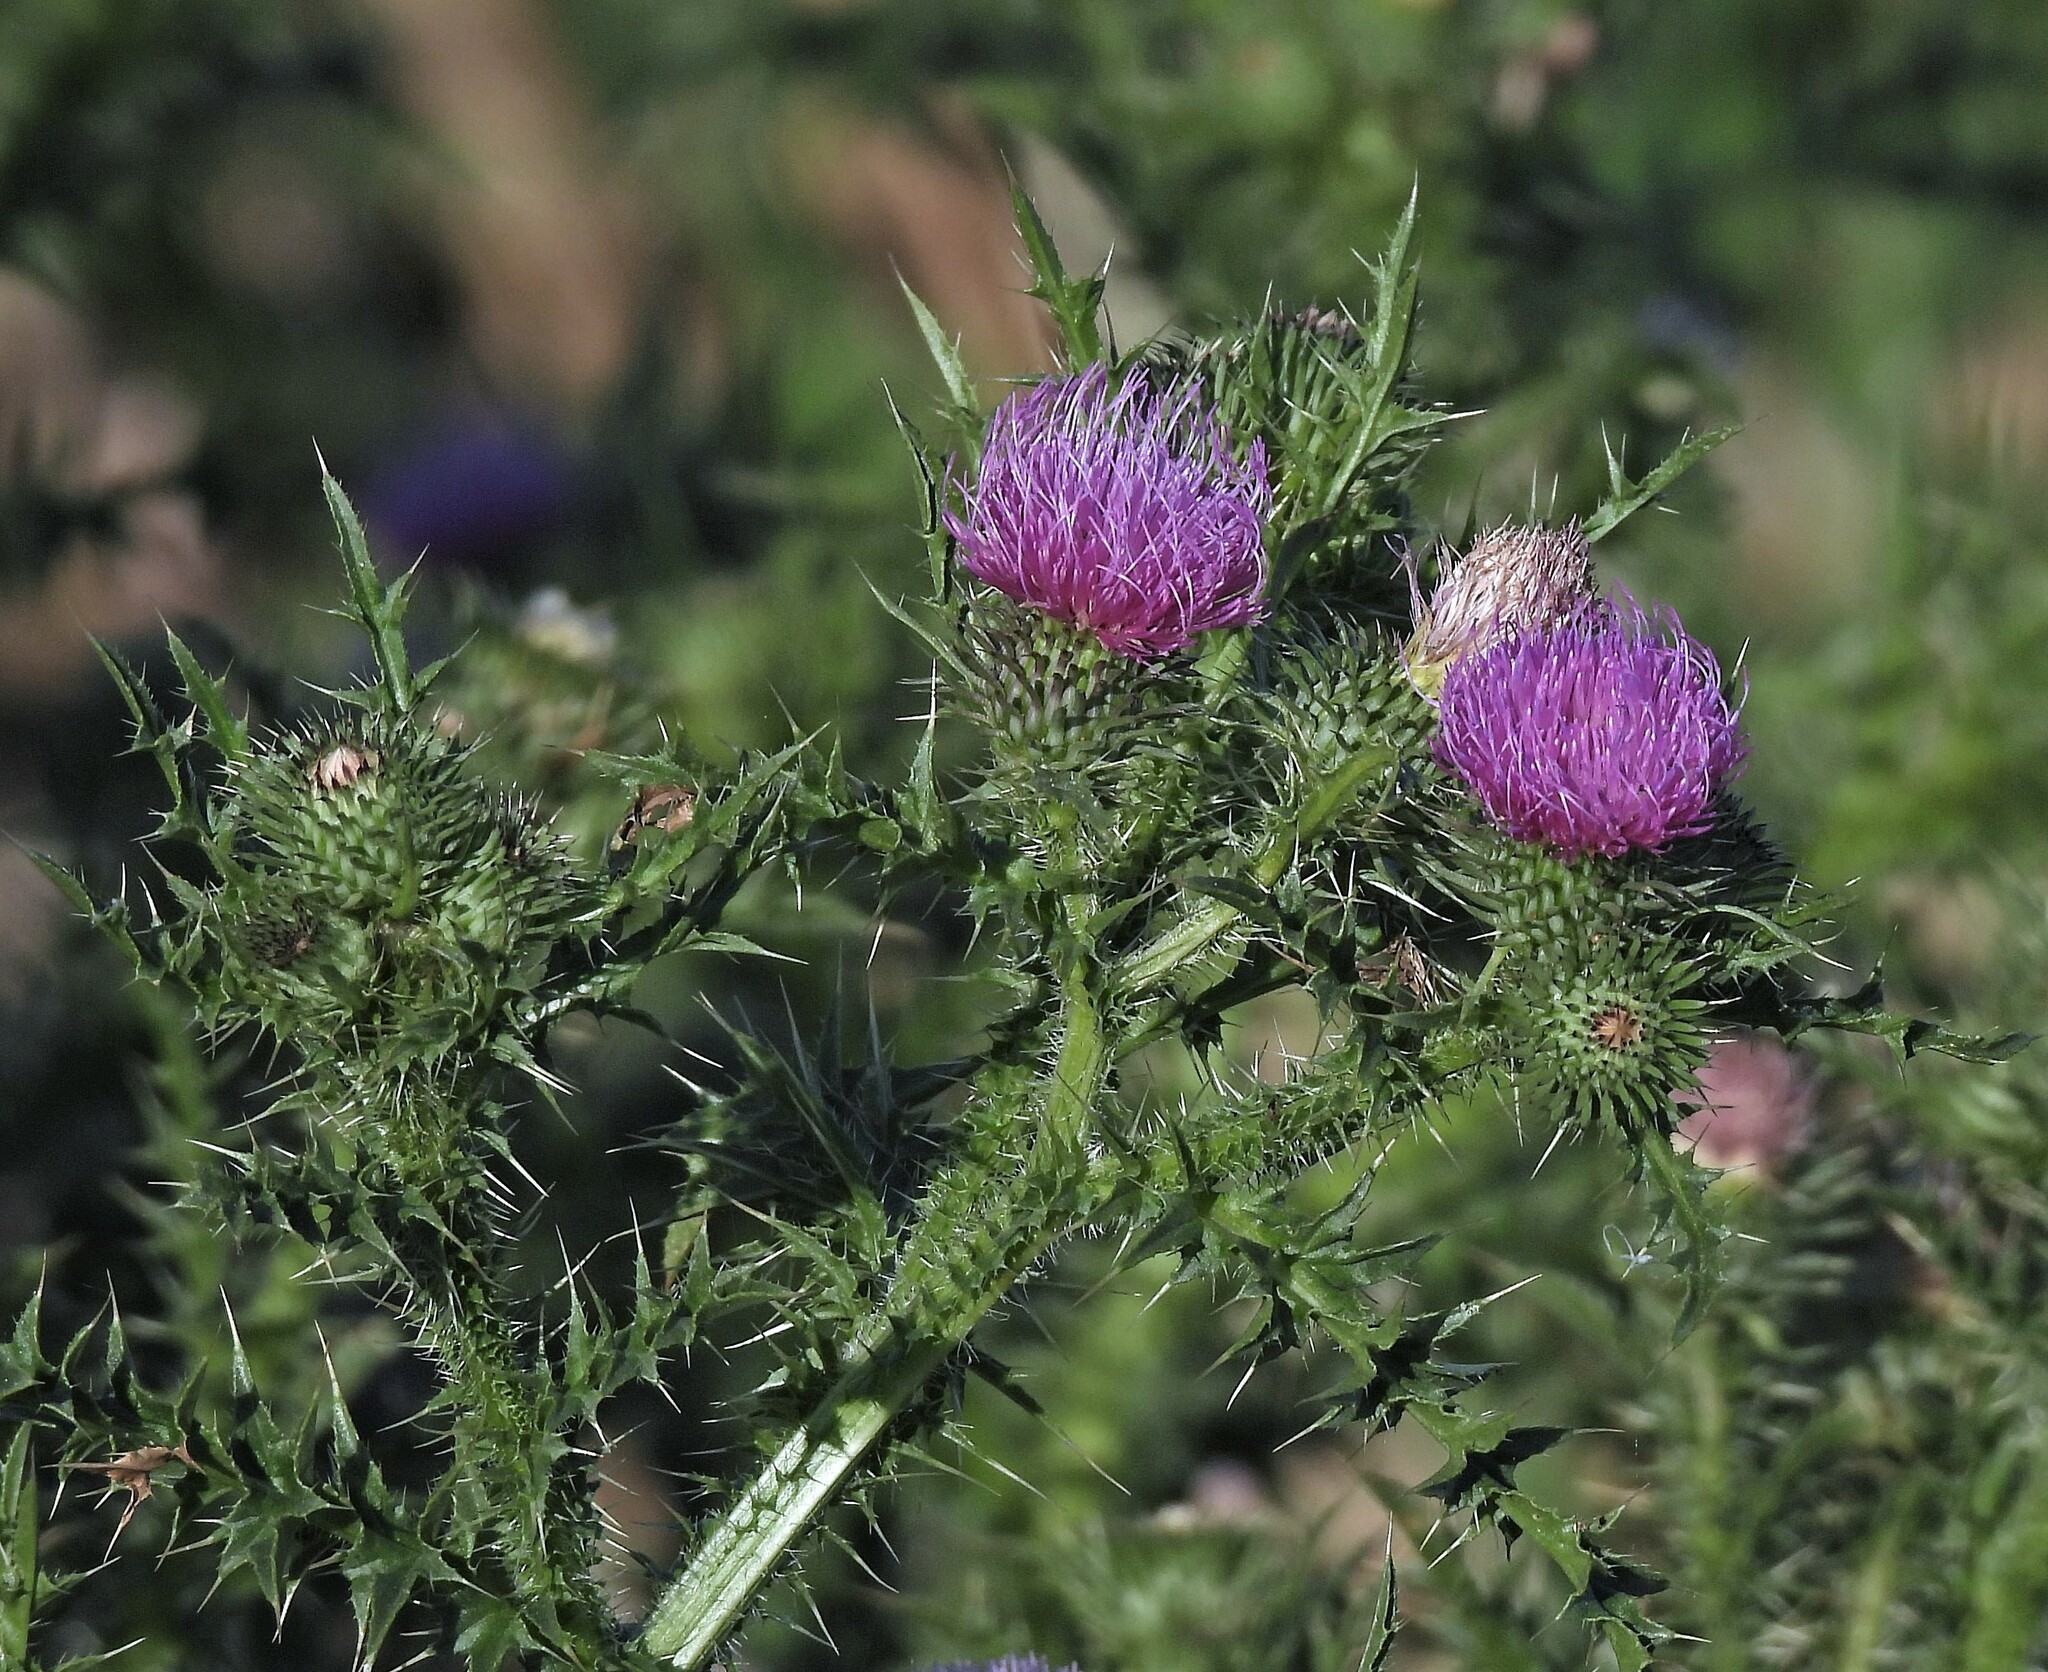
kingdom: Plantae
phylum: Tracheophyta
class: Magnoliopsida
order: Asterales
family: Asteraceae
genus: Carduus
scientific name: Carduus acanthoides
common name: Plumeless thistle
